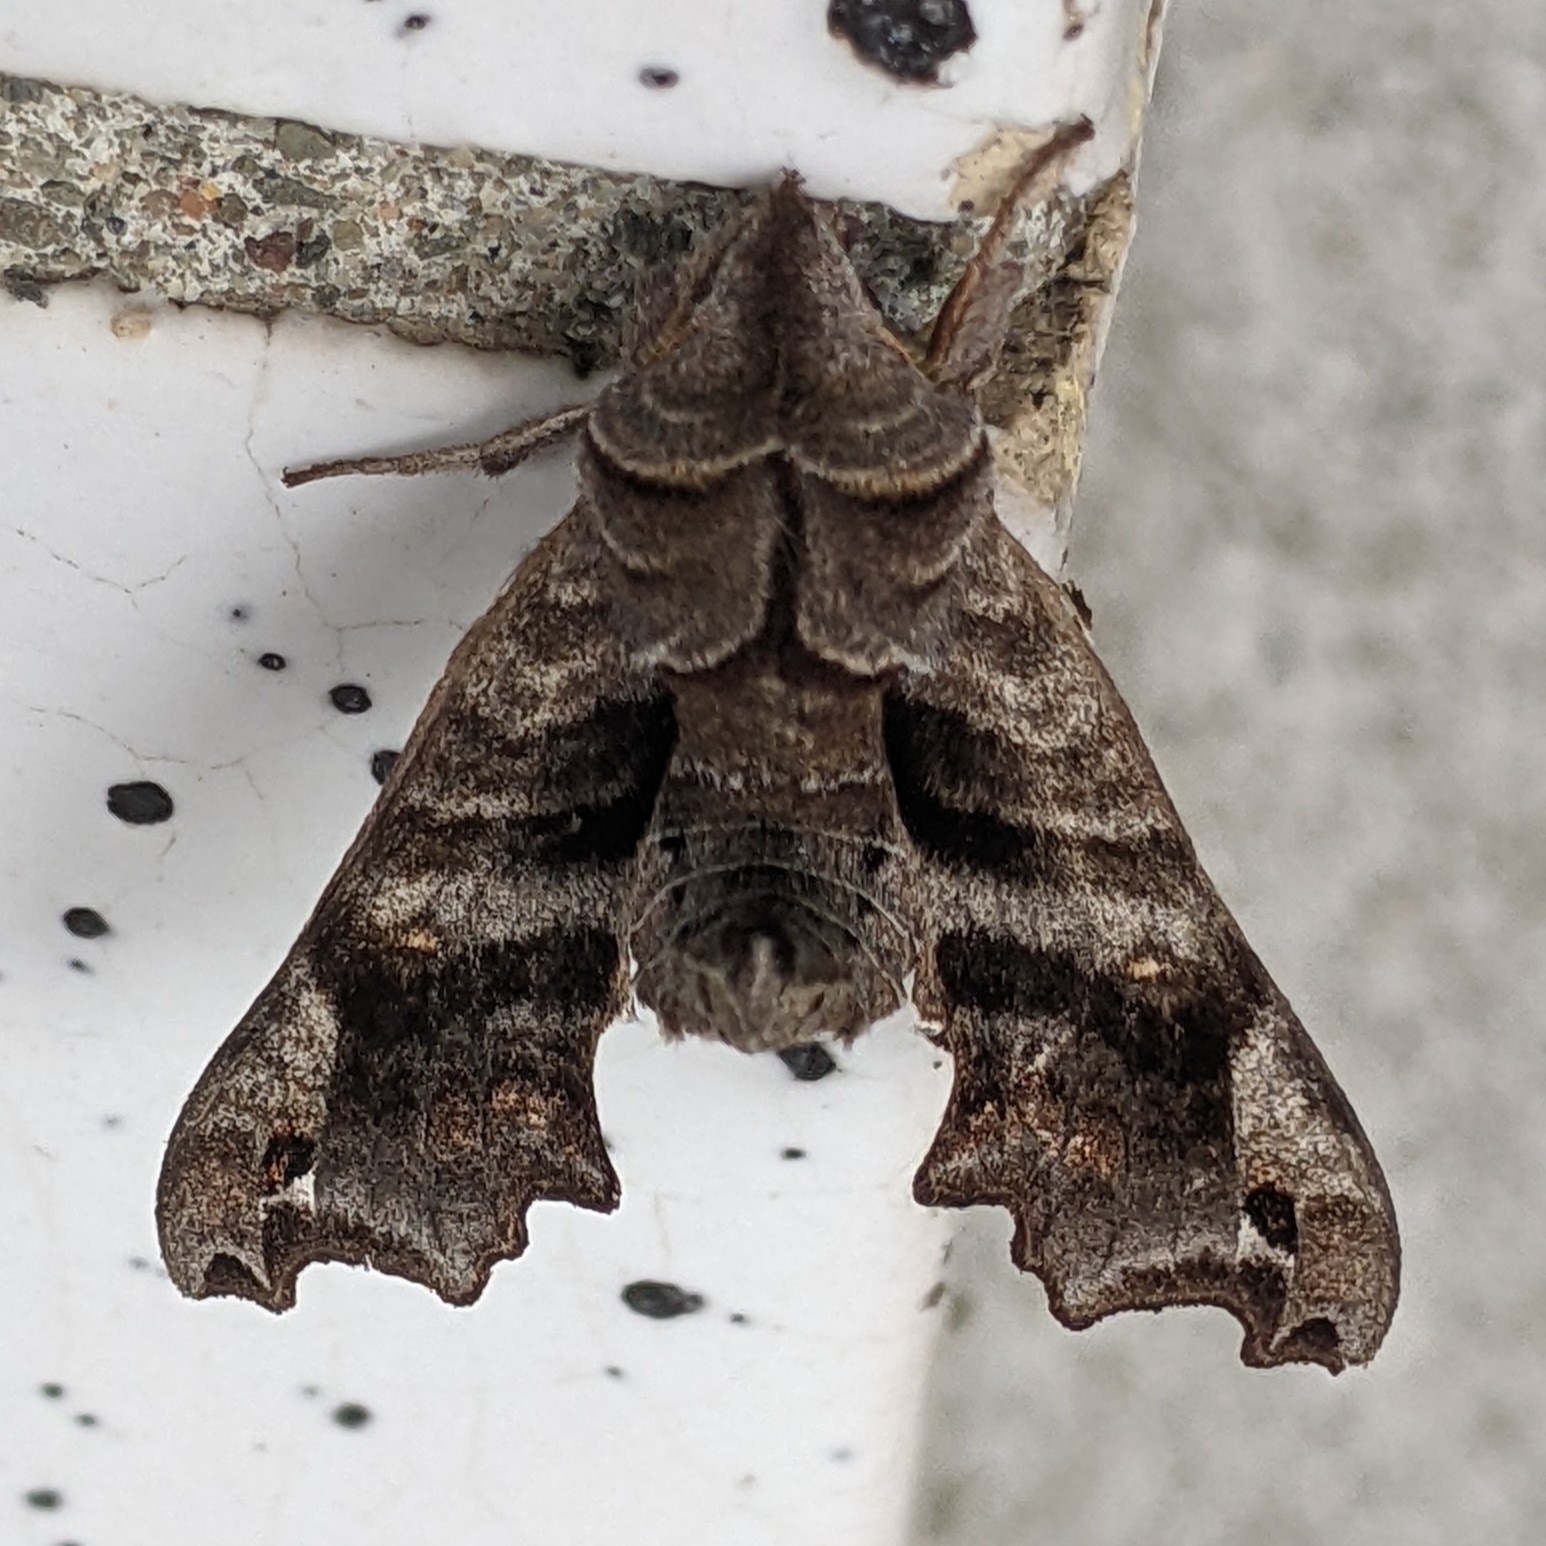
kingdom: Animalia
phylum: Arthropoda
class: Insecta
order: Lepidoptera
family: Sphingidae
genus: Deidamia
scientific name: Deidamia inscriptum
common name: Lettered sphinx
